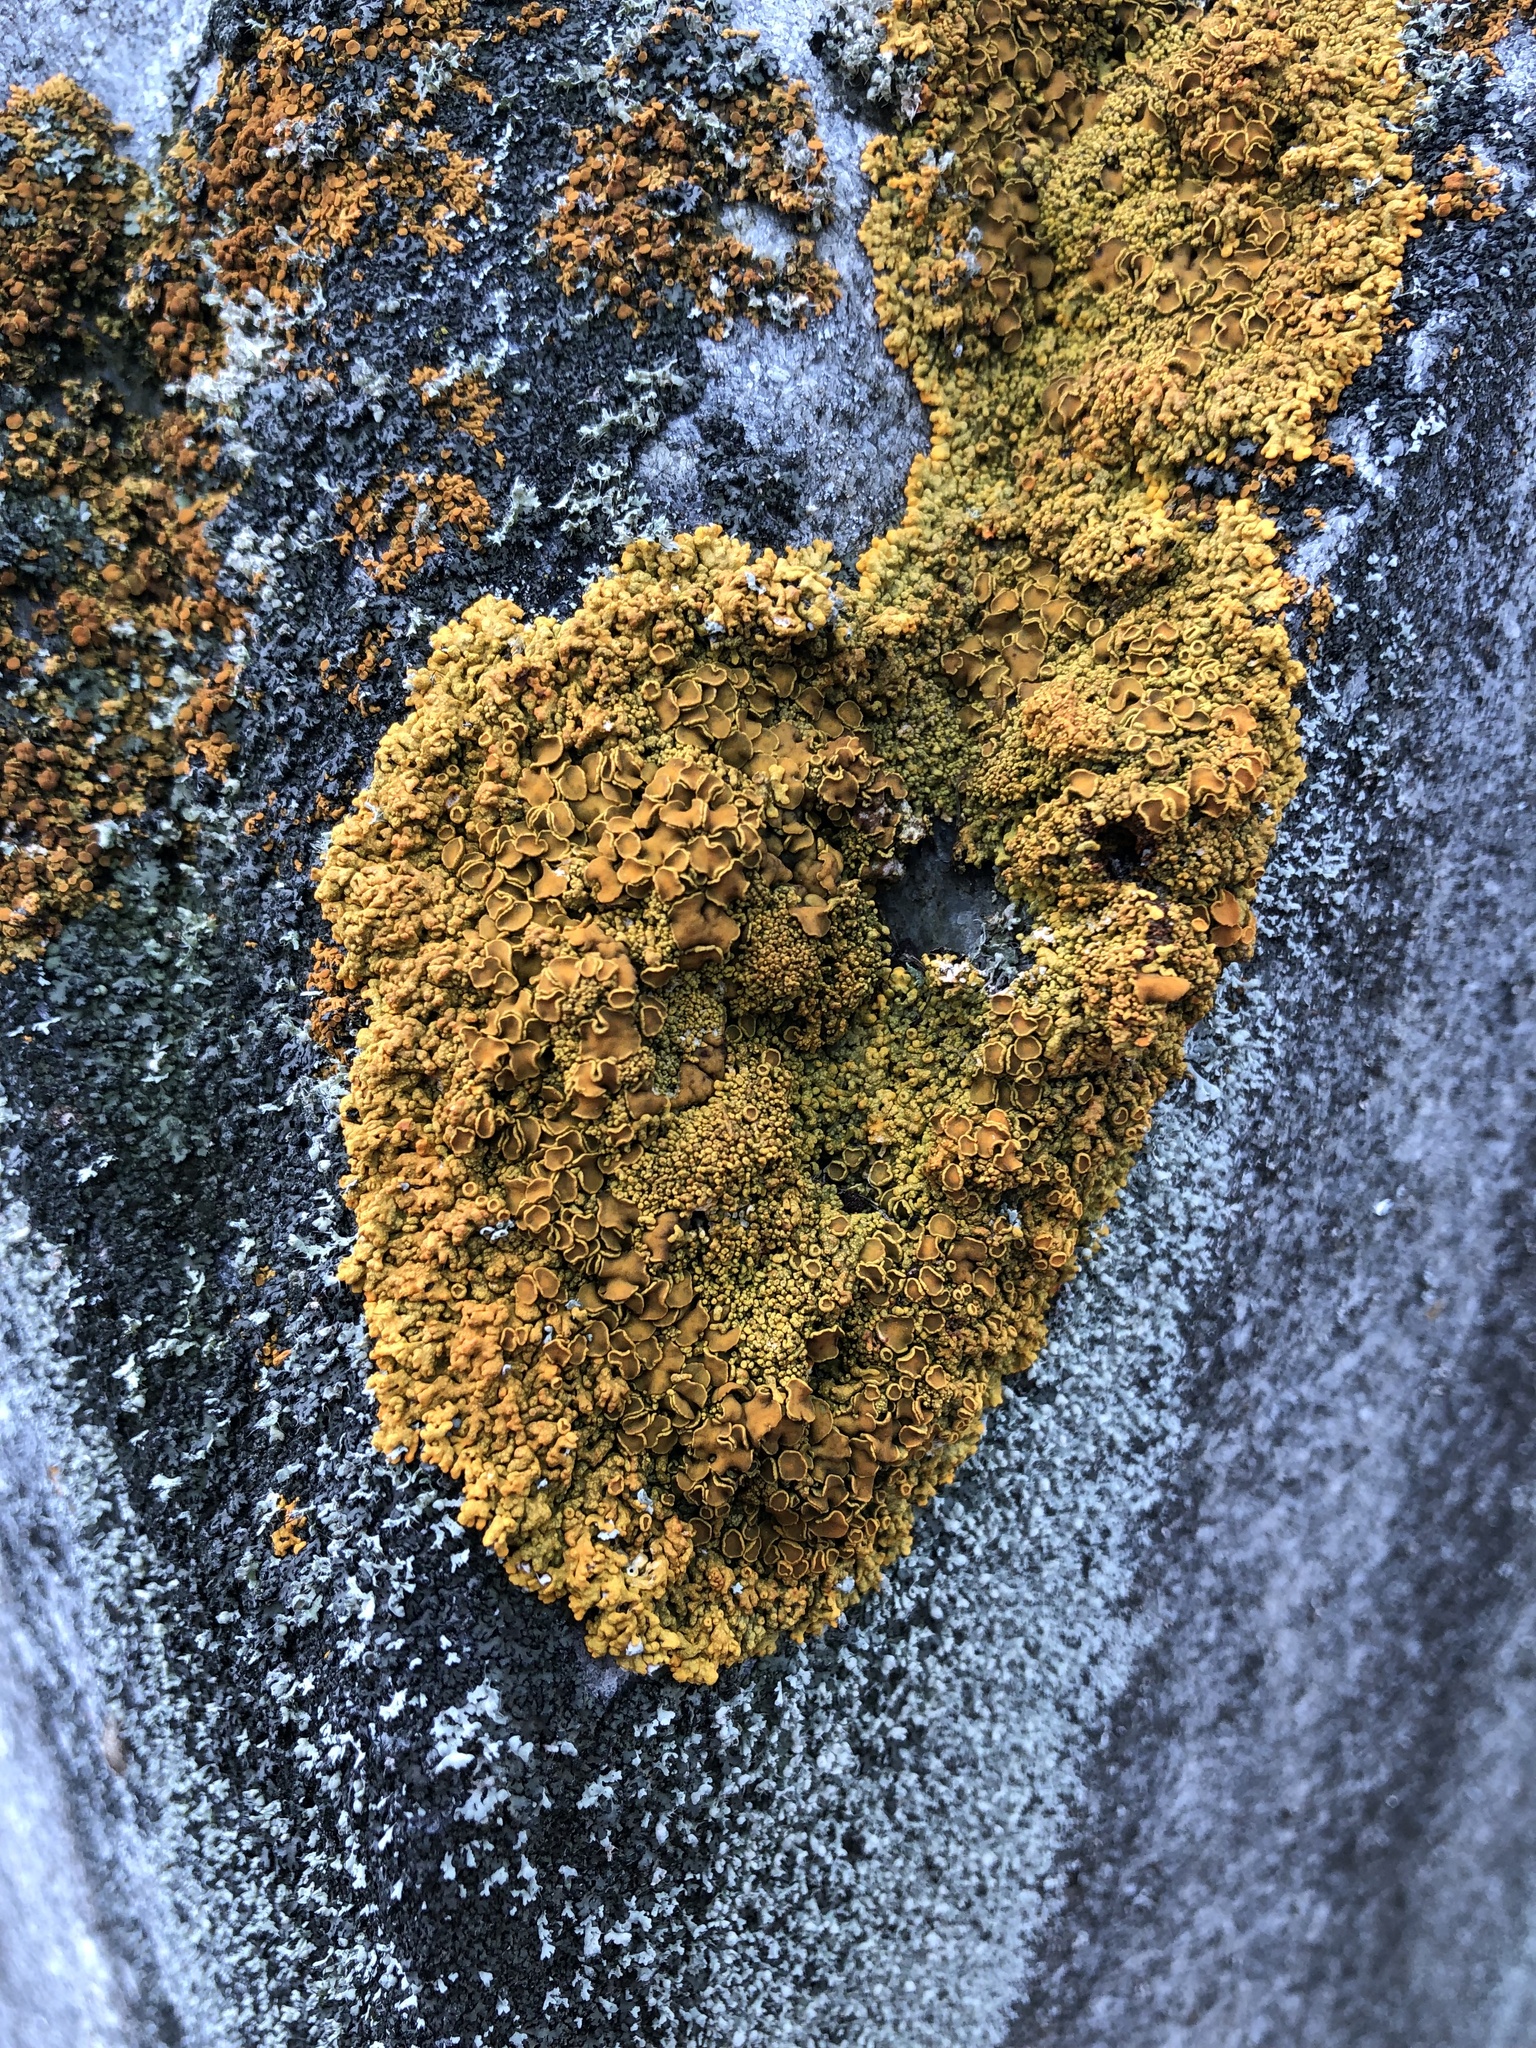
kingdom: Fungi
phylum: Ascomycota
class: Lecanoromycetes
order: Teloschistales
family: Teloschistaceae
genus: Xanthoria
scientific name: Xanthoria elegans
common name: Elegant sunburst lichen
